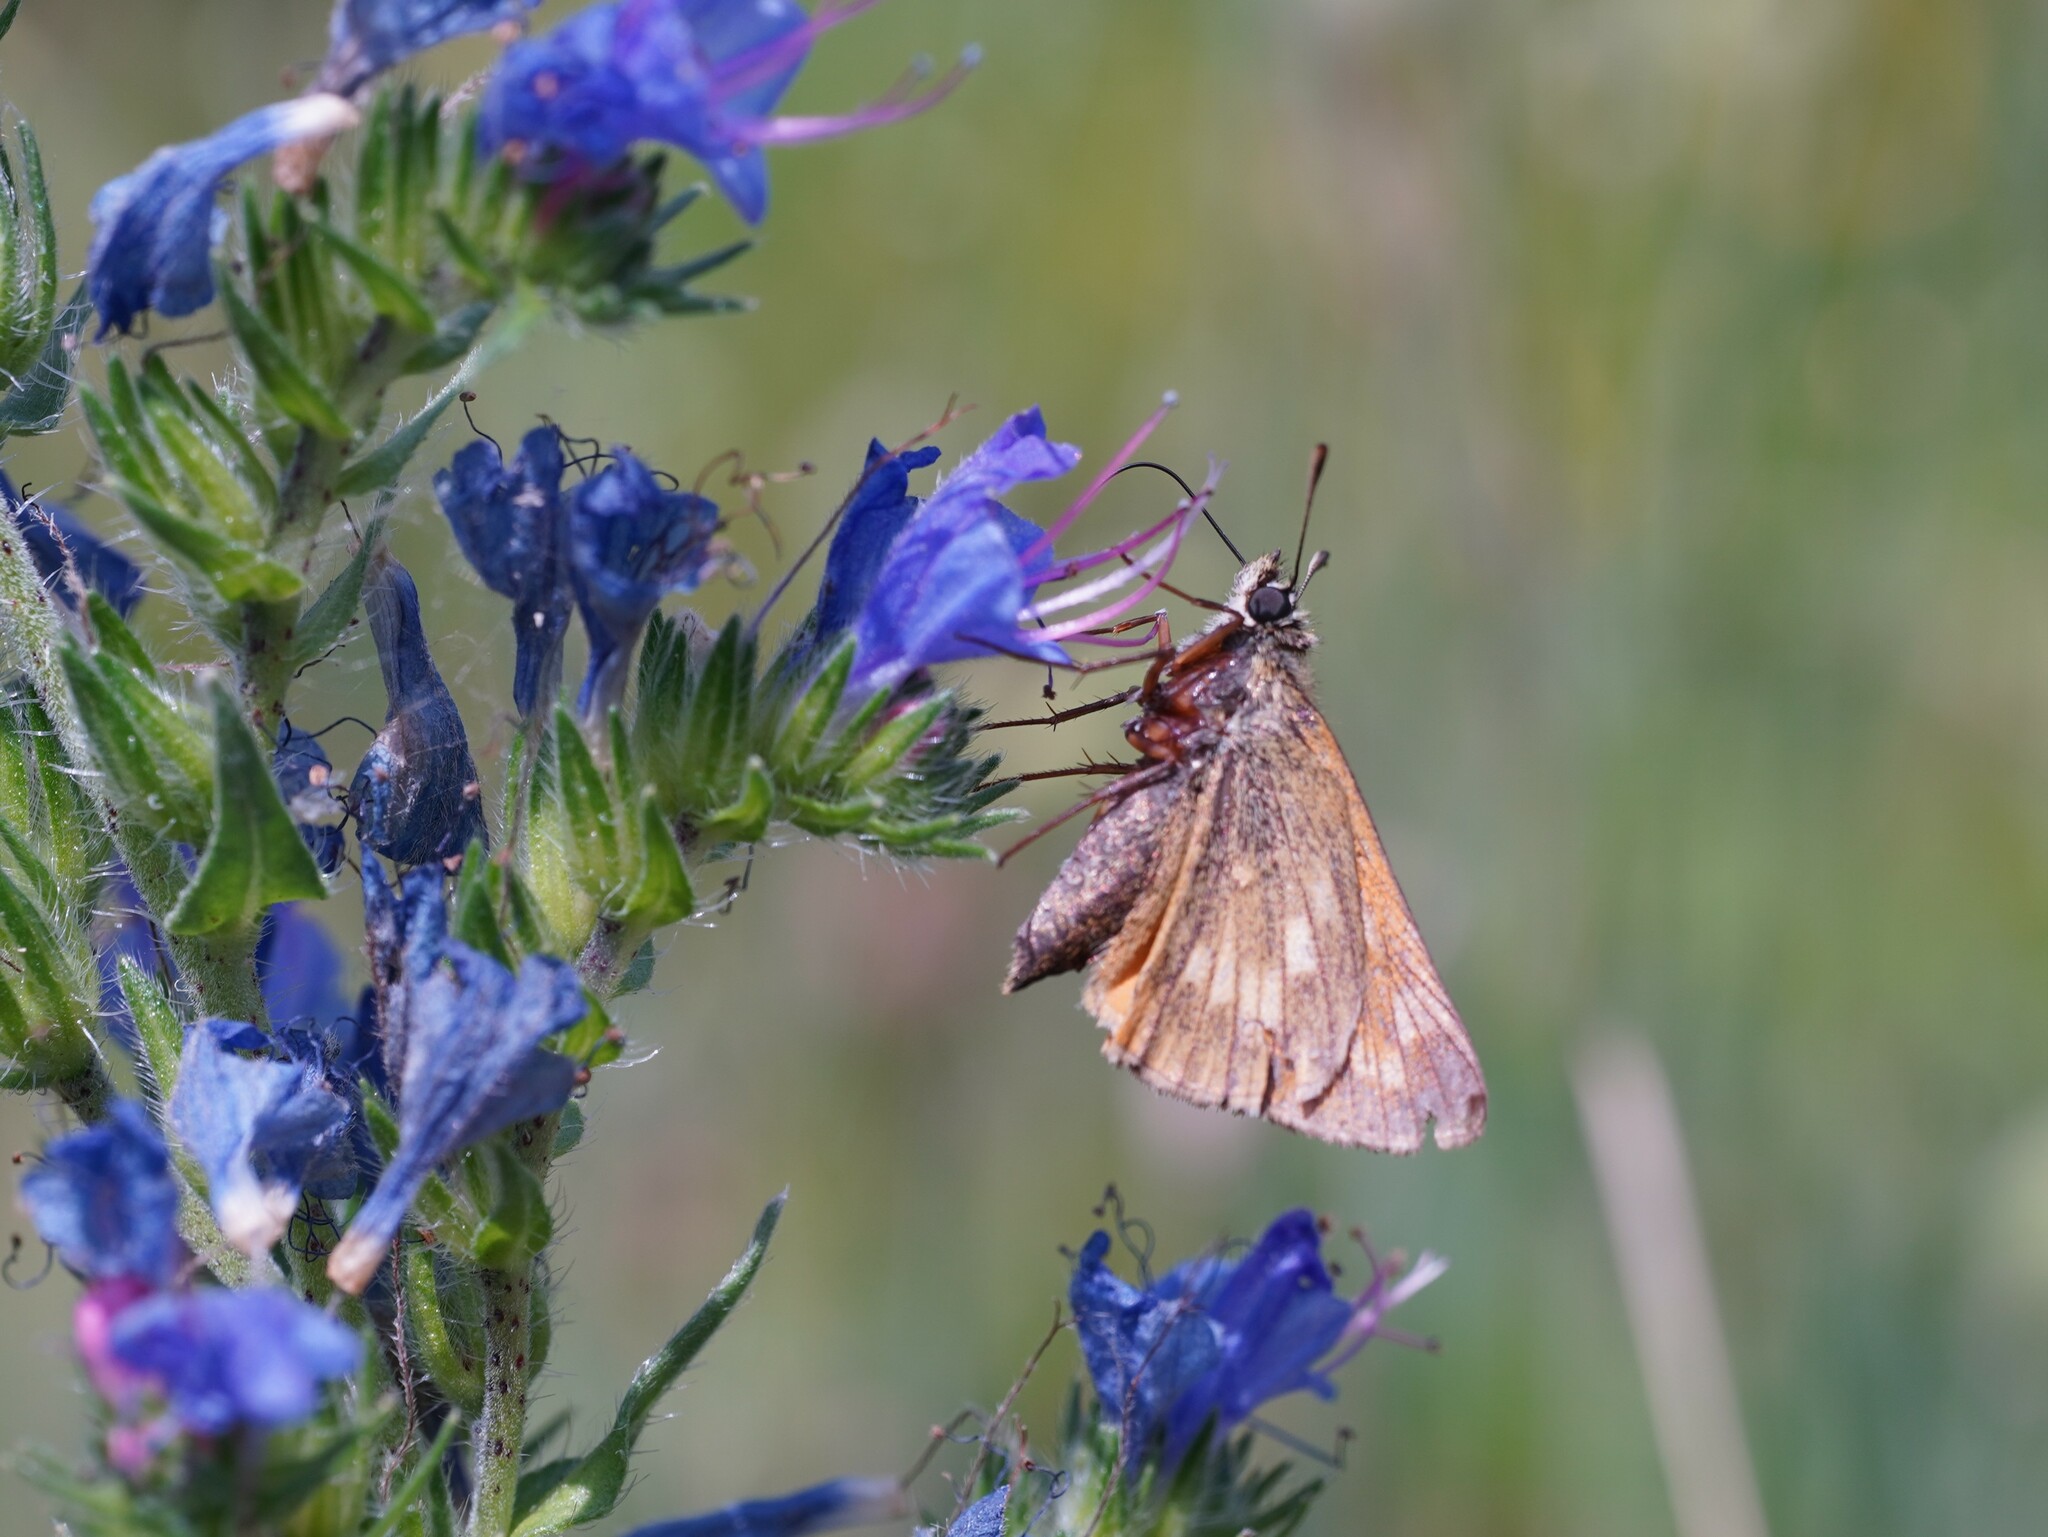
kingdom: Animalia
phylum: Arthropoda
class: Insecta
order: Lepidoptera
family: Hesperiidae
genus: Ochlodes
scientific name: Ochlodes venata
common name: Large skipper
